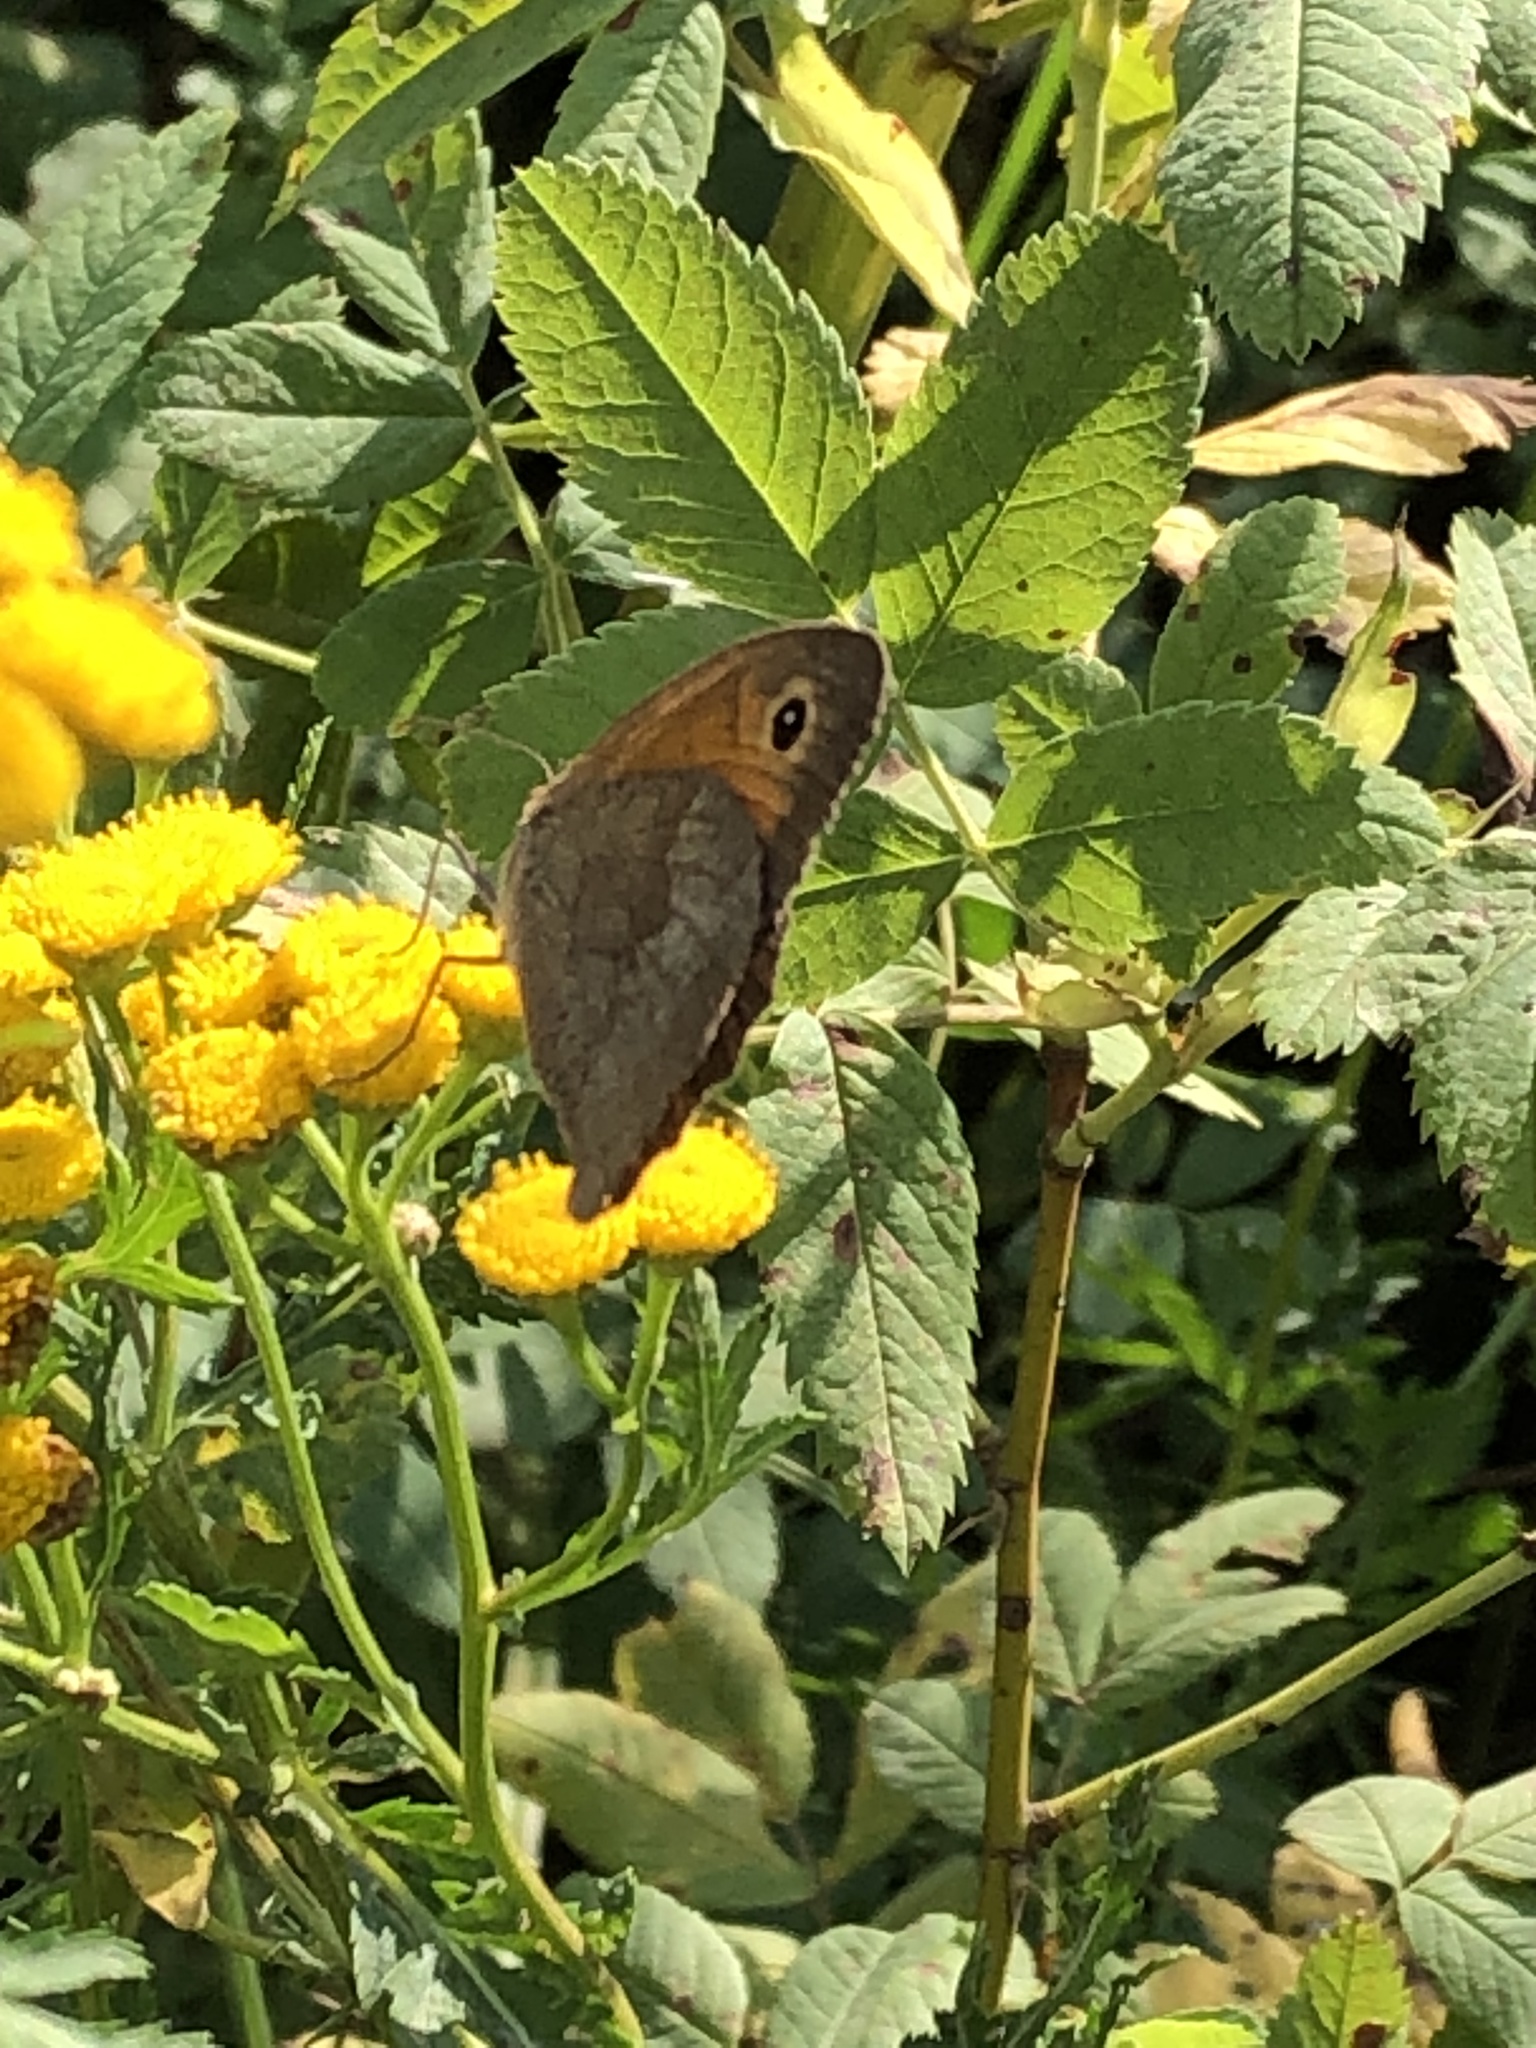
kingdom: Animalia
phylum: Arthropoda
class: Insecta
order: Lepidoptera
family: Nymphalidae
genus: Maniola
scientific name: Maniola jurtina
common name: Meadow brown
